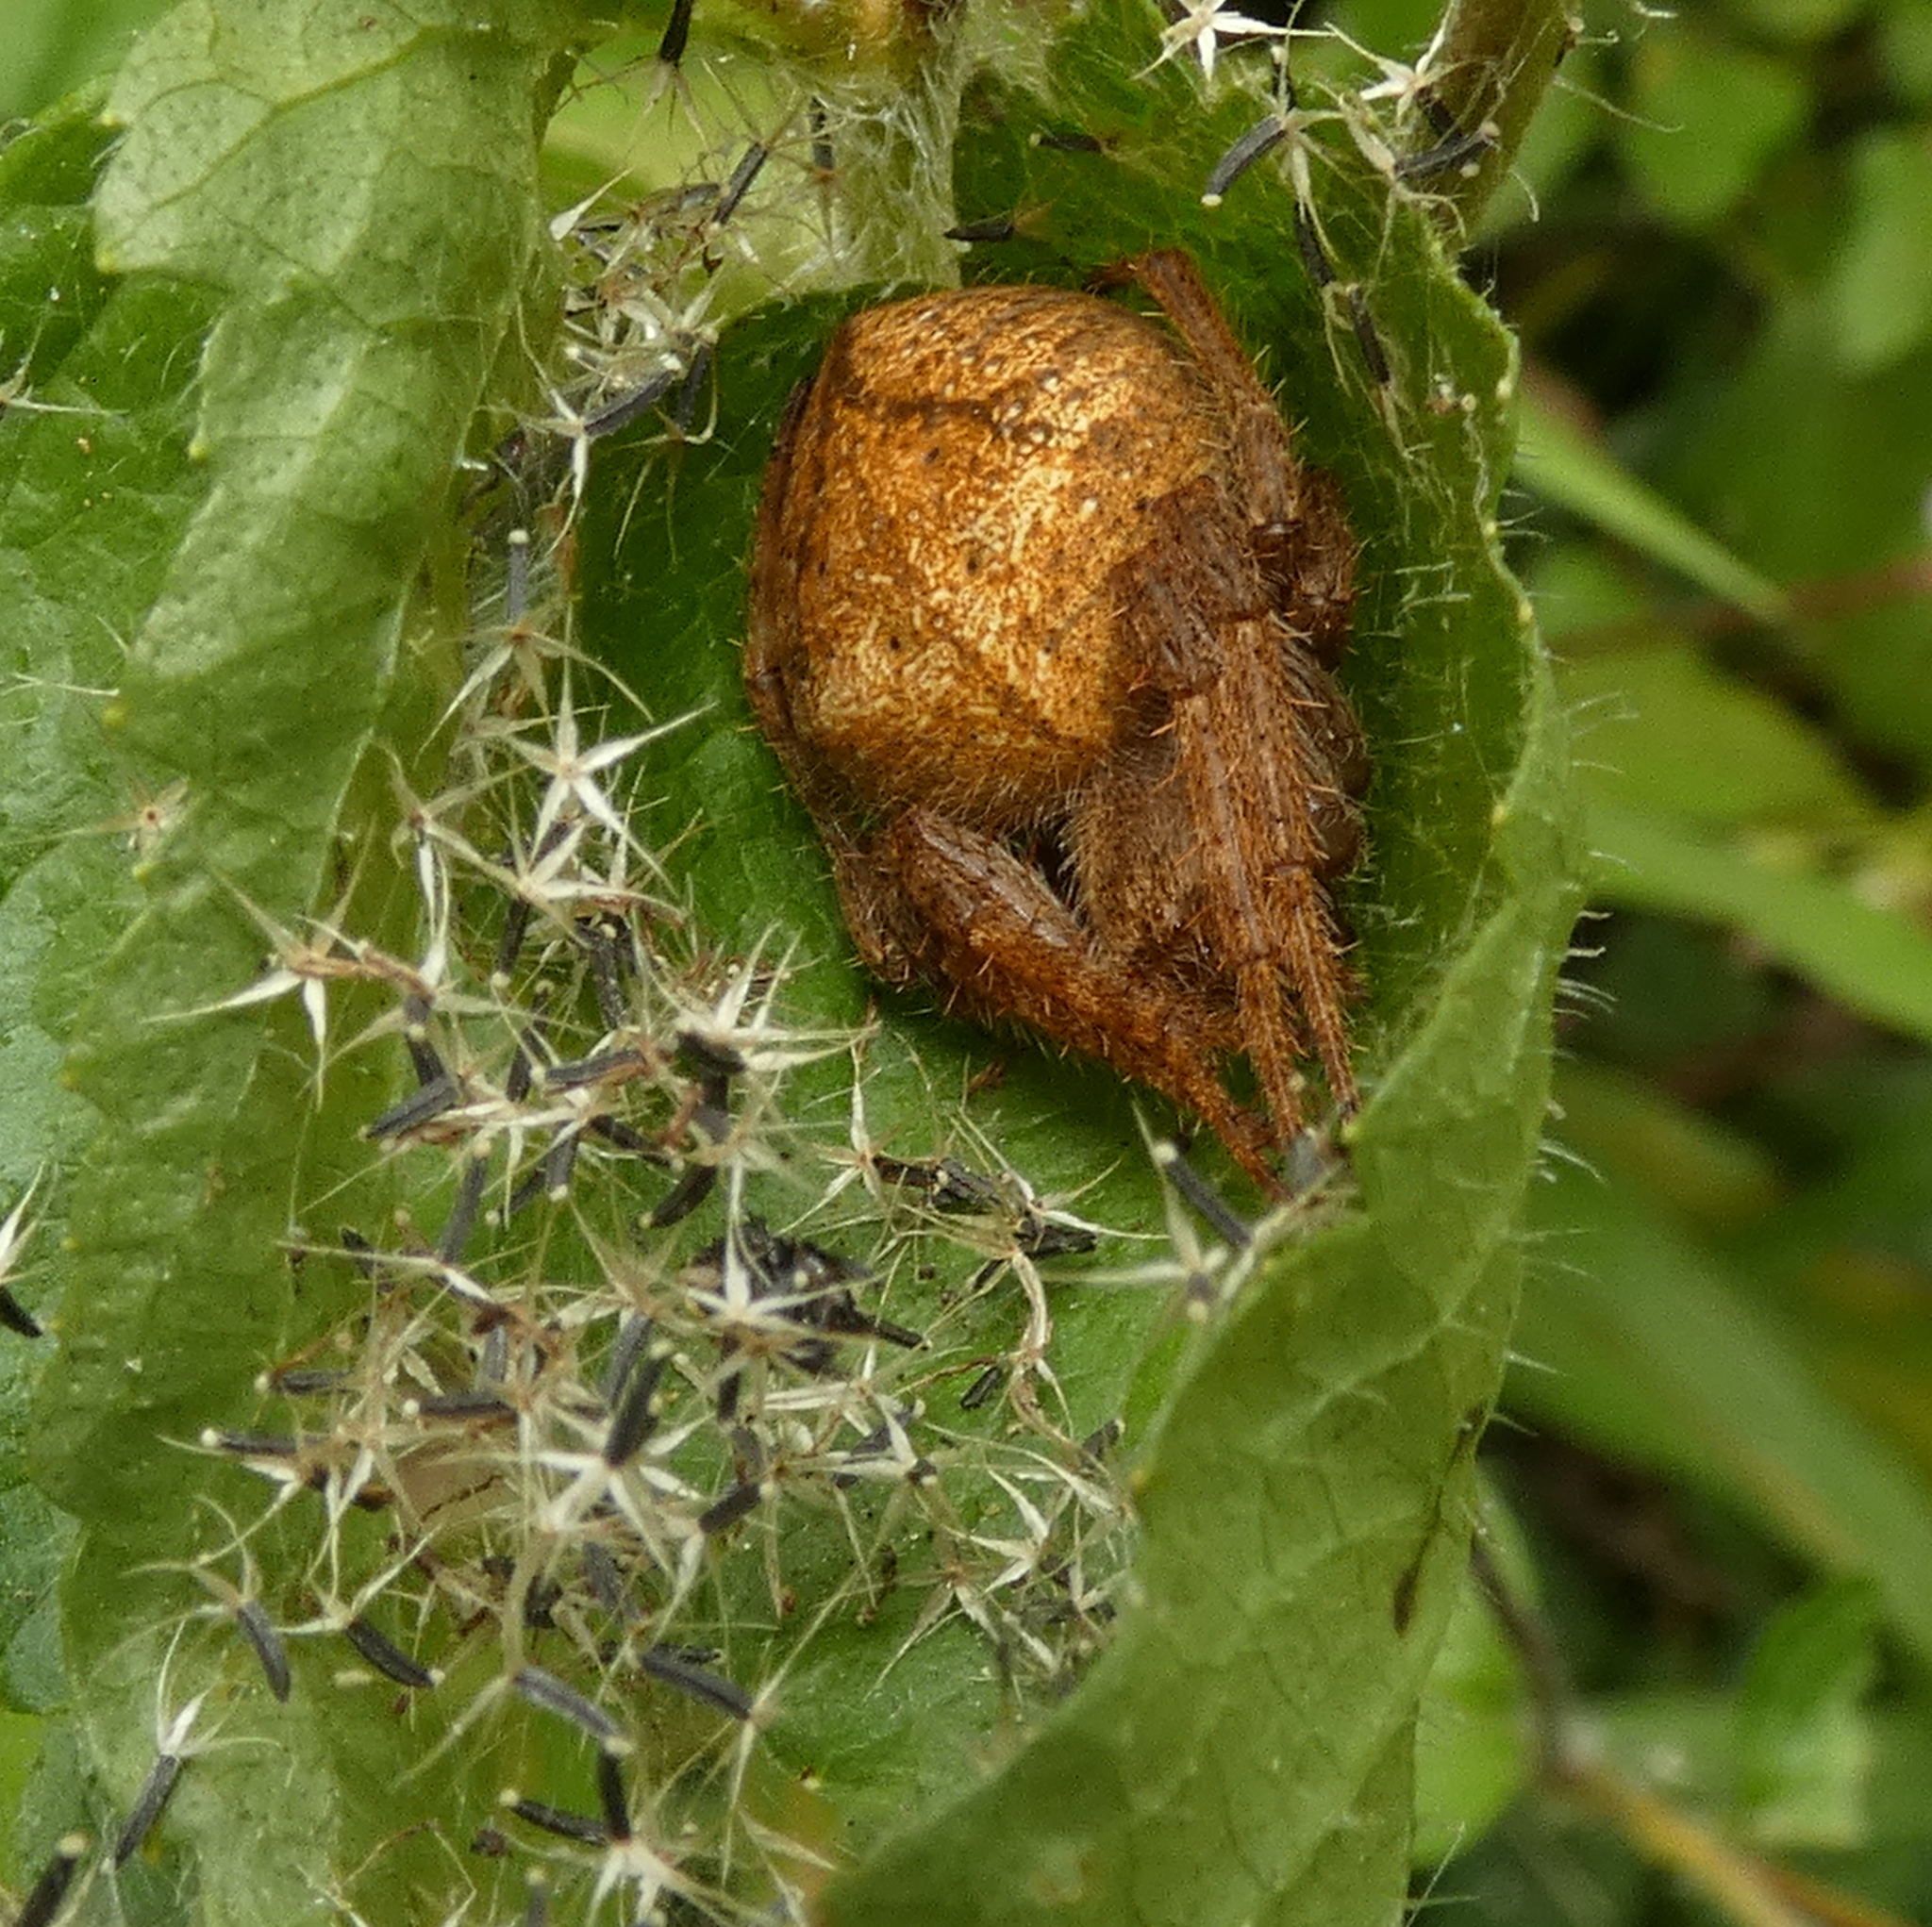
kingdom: Animalia
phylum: Arthropoda
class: Arachnida
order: Araneae
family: Araneidae
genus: Eriophora
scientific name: Eriophora edax
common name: Orb weavers
